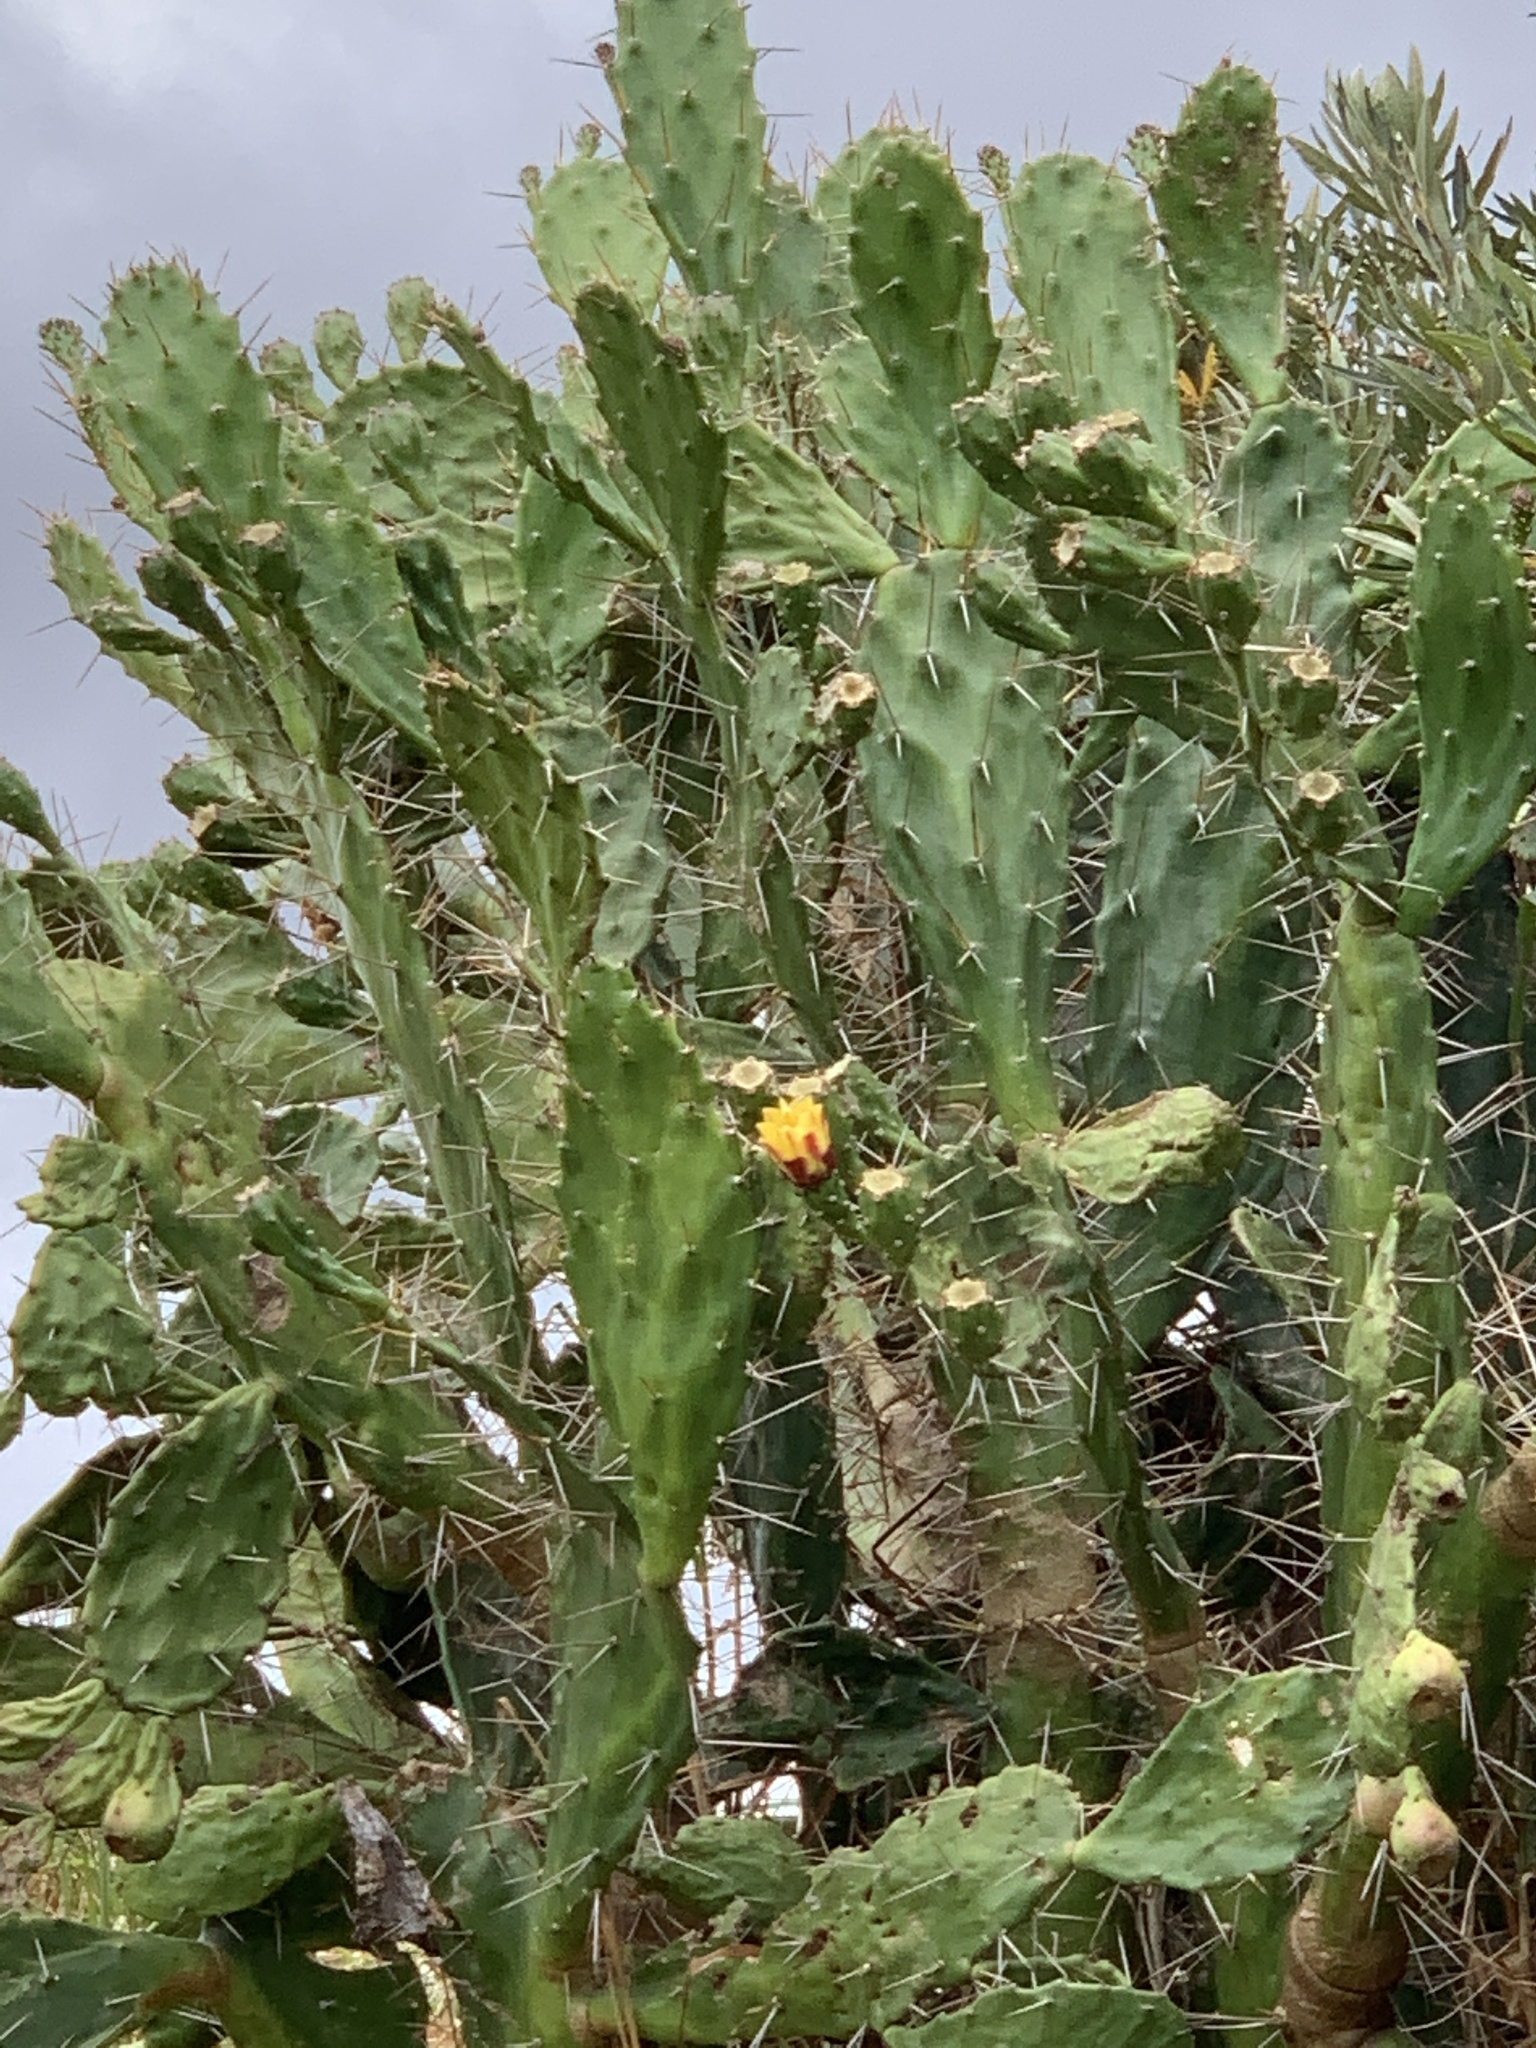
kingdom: Plantae
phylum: Tracheophyta
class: Magnoliopsida
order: Caryophyllales
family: Cactaceae
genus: Opuntia
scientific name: Opuntia monacantha
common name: Common pricklypear
